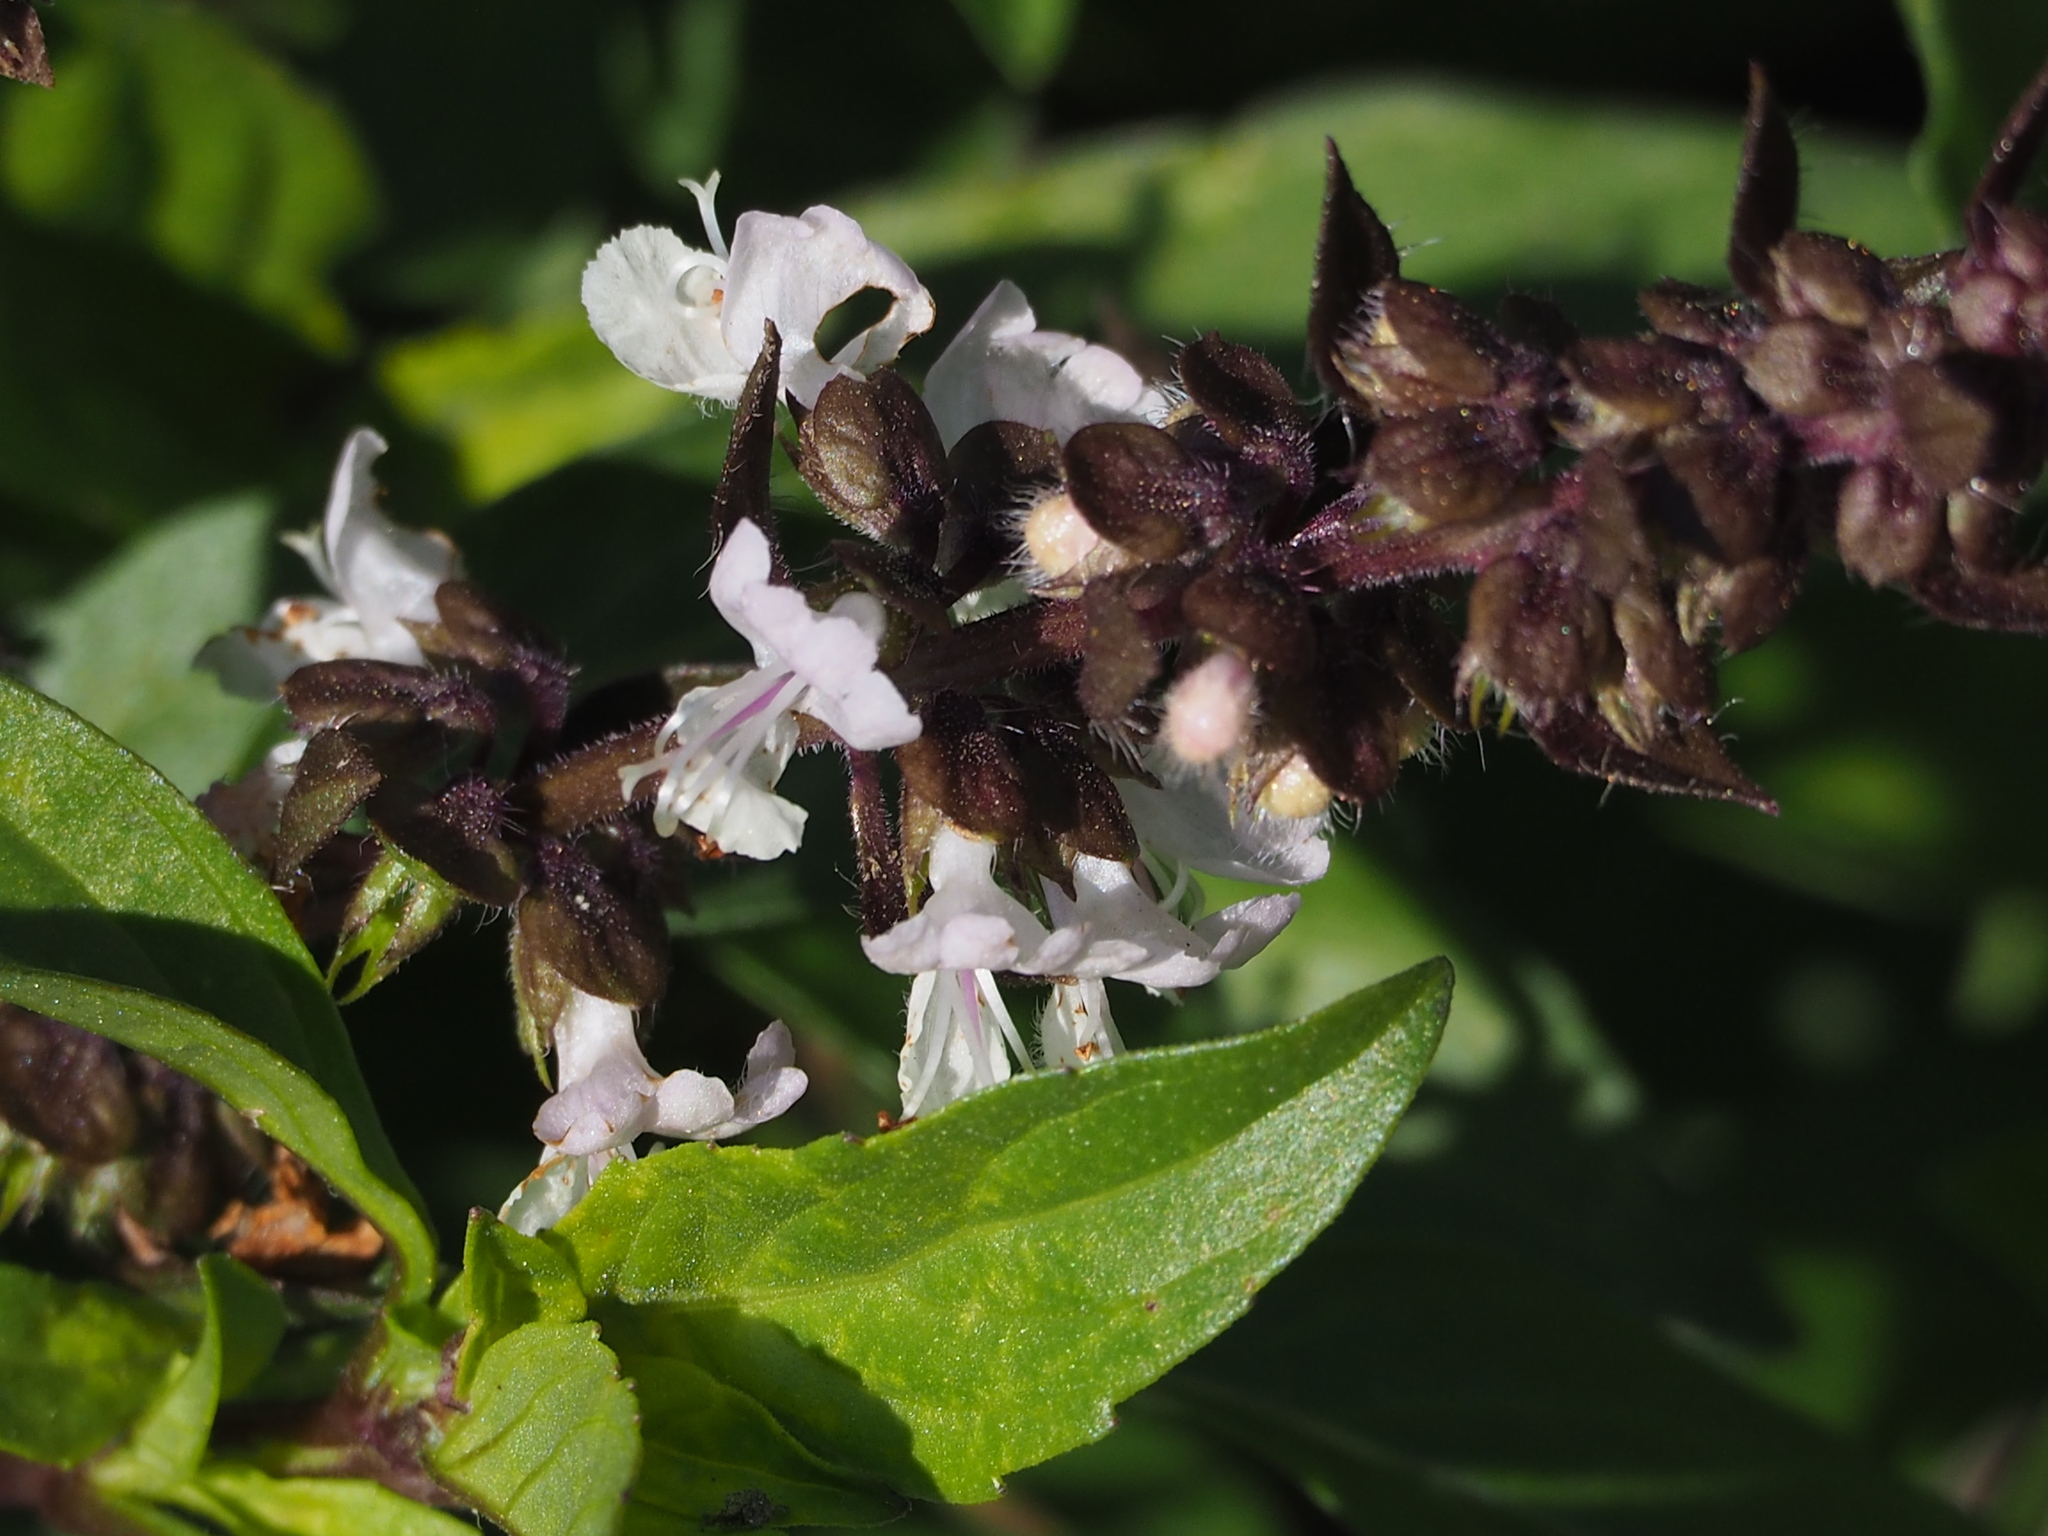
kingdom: Plantae
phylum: Tracheophyta
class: Magnoliopsida
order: Lamiales
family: Lamiaceae
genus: Ocimum
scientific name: Ocimum basilicum
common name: Sweet basil
